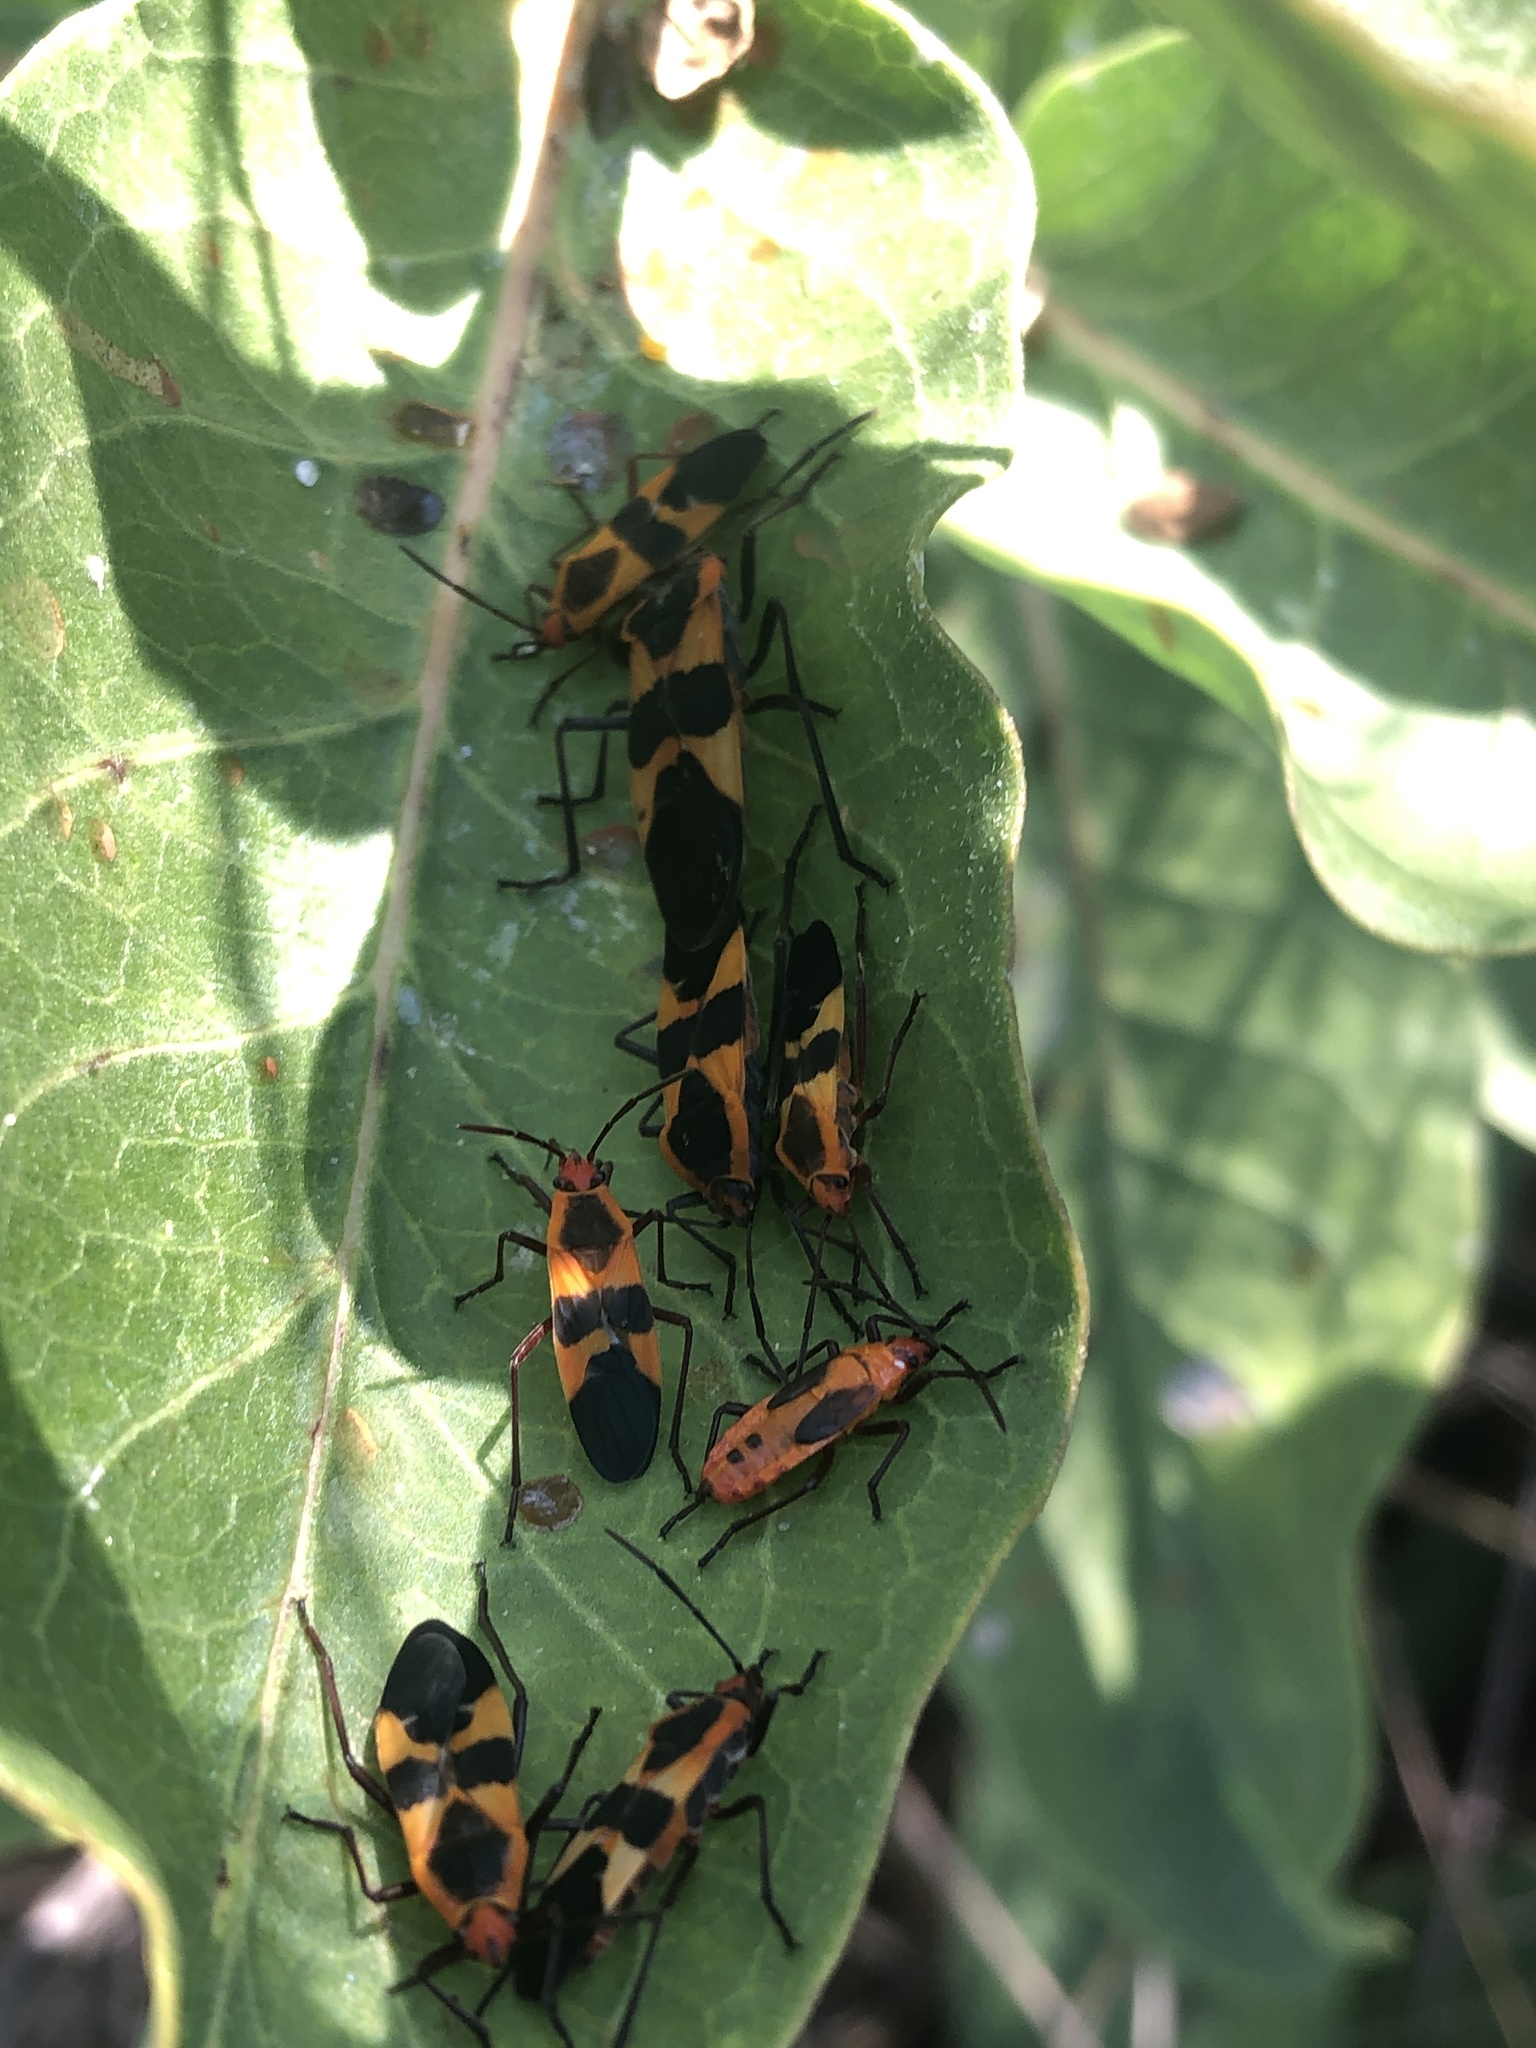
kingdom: Animalia
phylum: Arthropoda
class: Insecta
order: Hemiptera
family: Lygaeidae
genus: Oncopeltus
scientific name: Oncopeltus fasciatus
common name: Large milkweed bug
